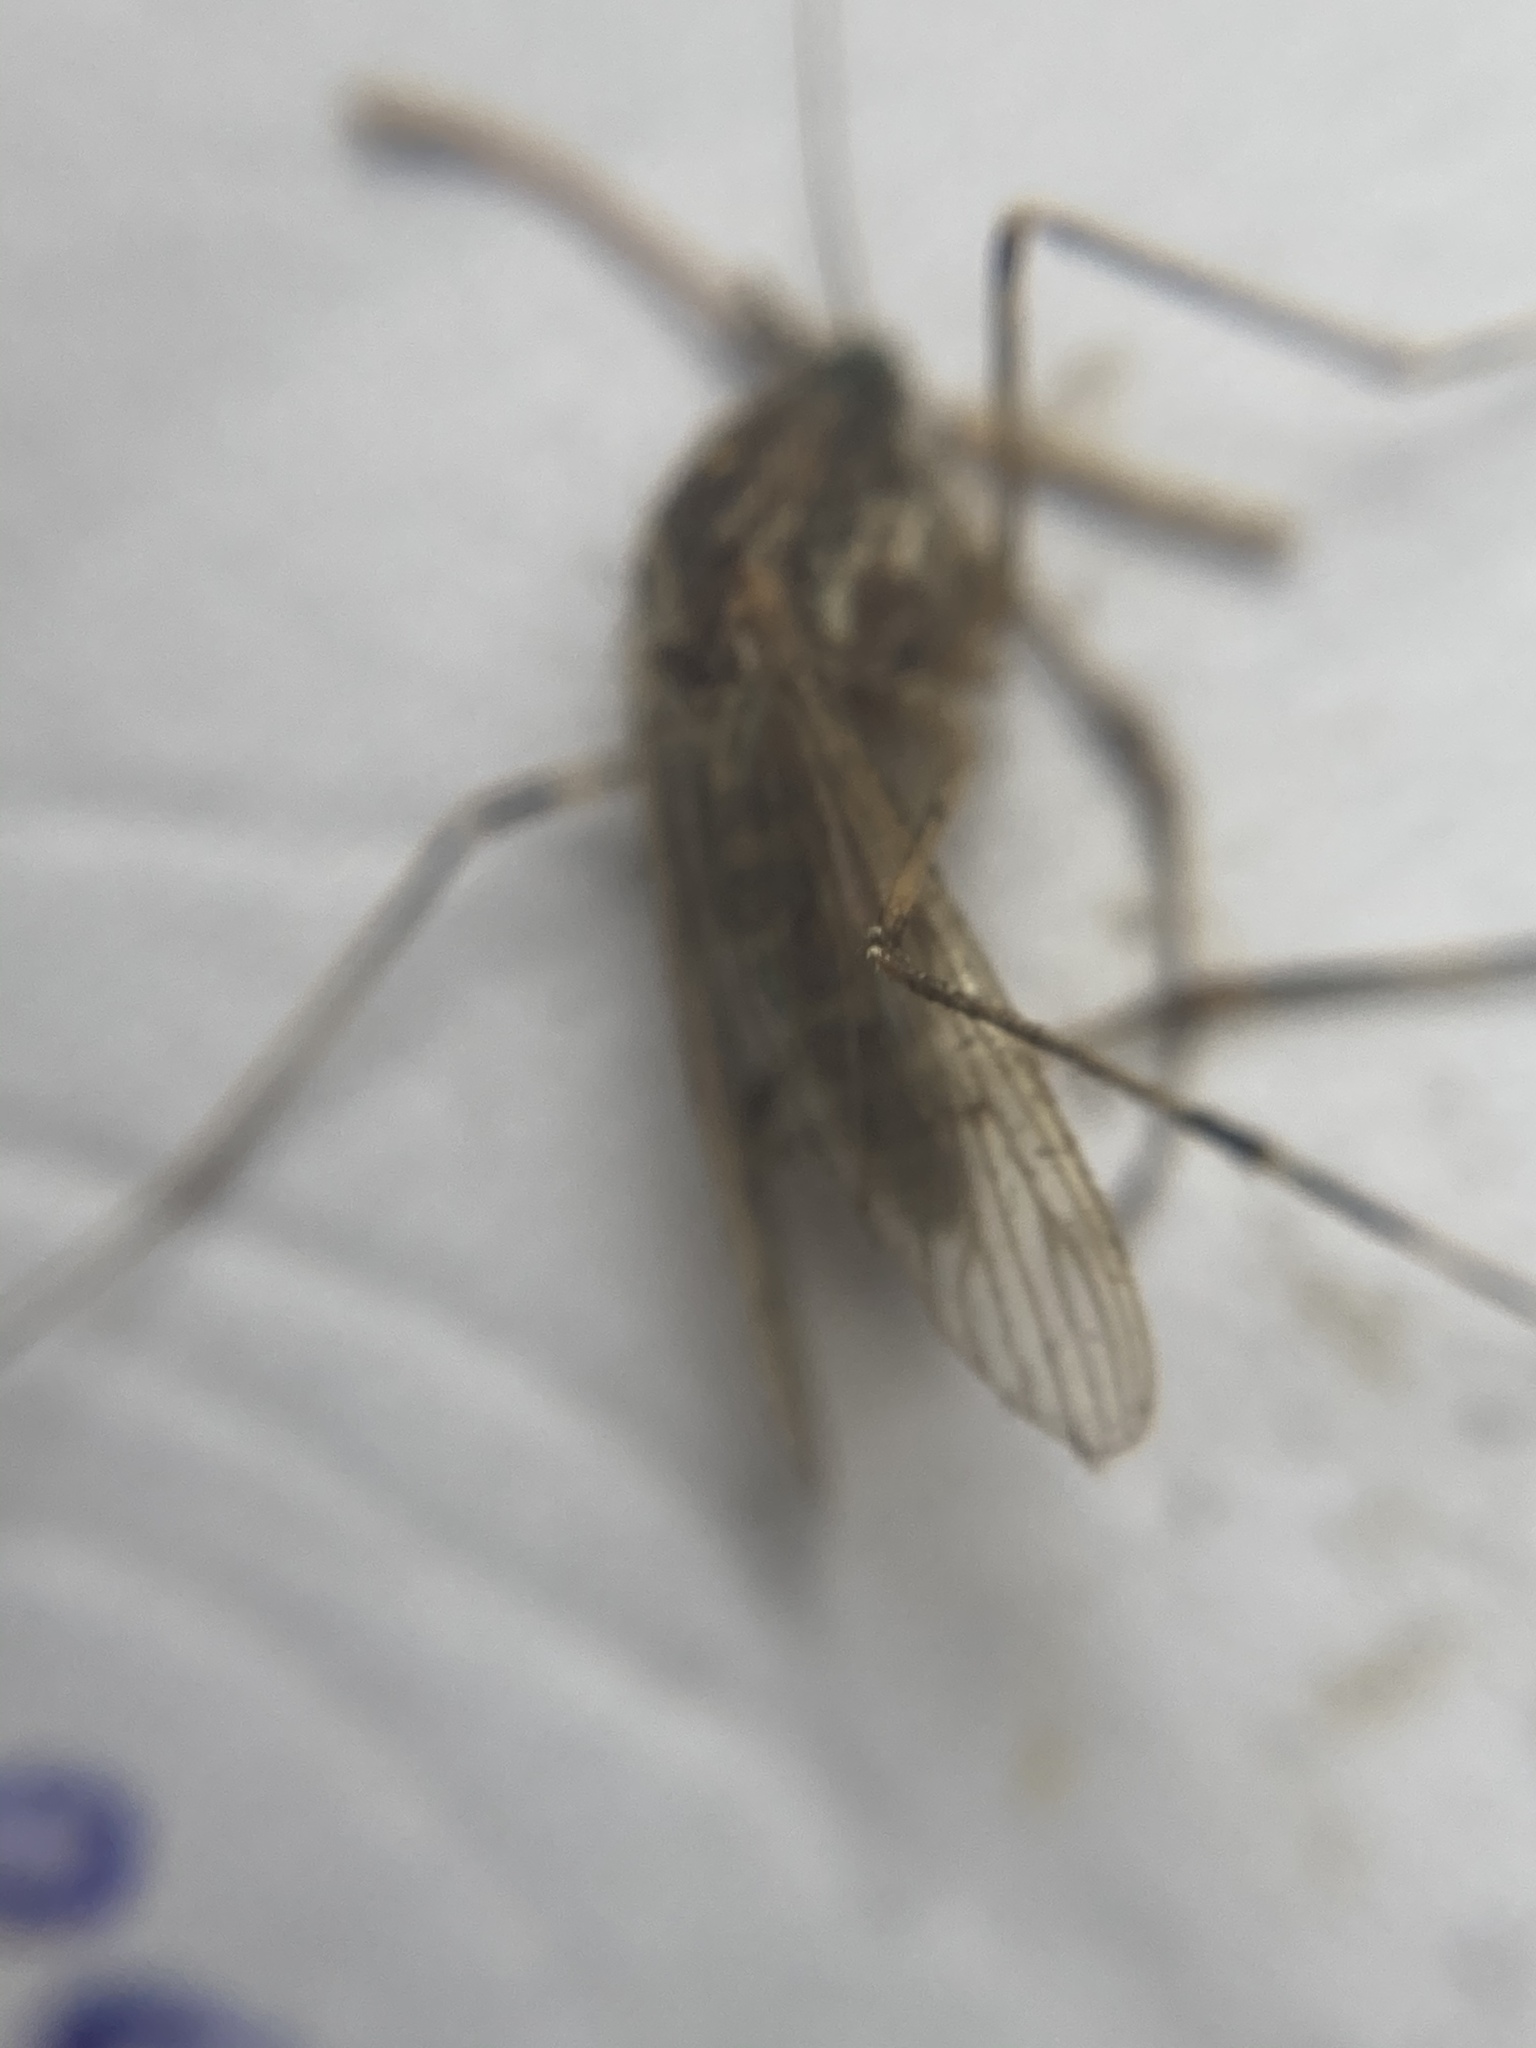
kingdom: Animalia
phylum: Arthropoda
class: Insecta
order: Diptera
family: Culicidae
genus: Culiseta
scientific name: Culiseta annulata
